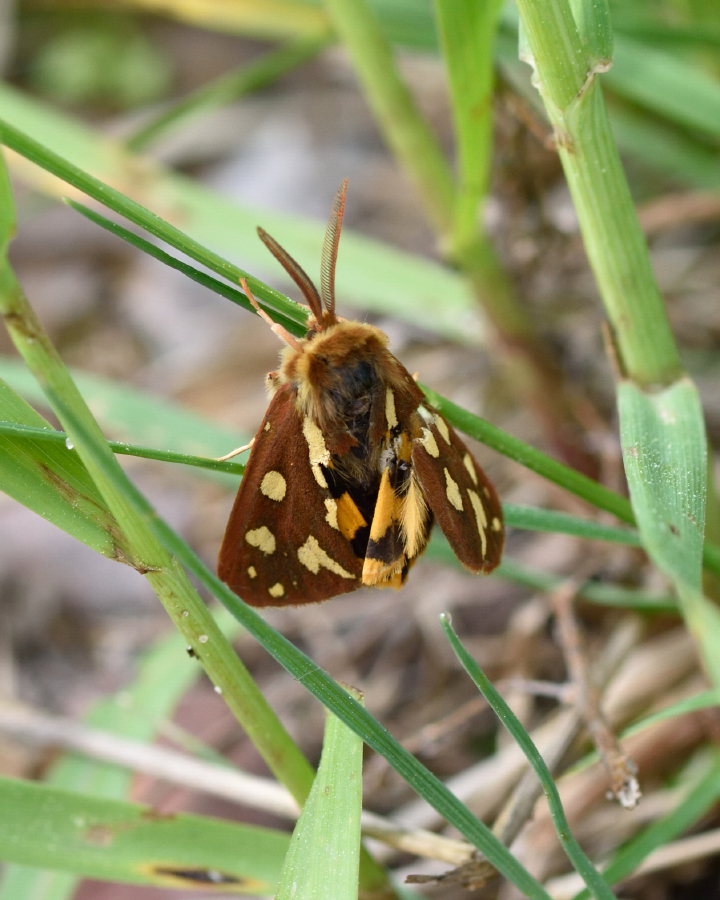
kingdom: Animalia
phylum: Arthropoda
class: Insecta
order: Lepidoptera
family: Erebidae
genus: Hyphoraia
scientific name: Hyphoraia aulica
